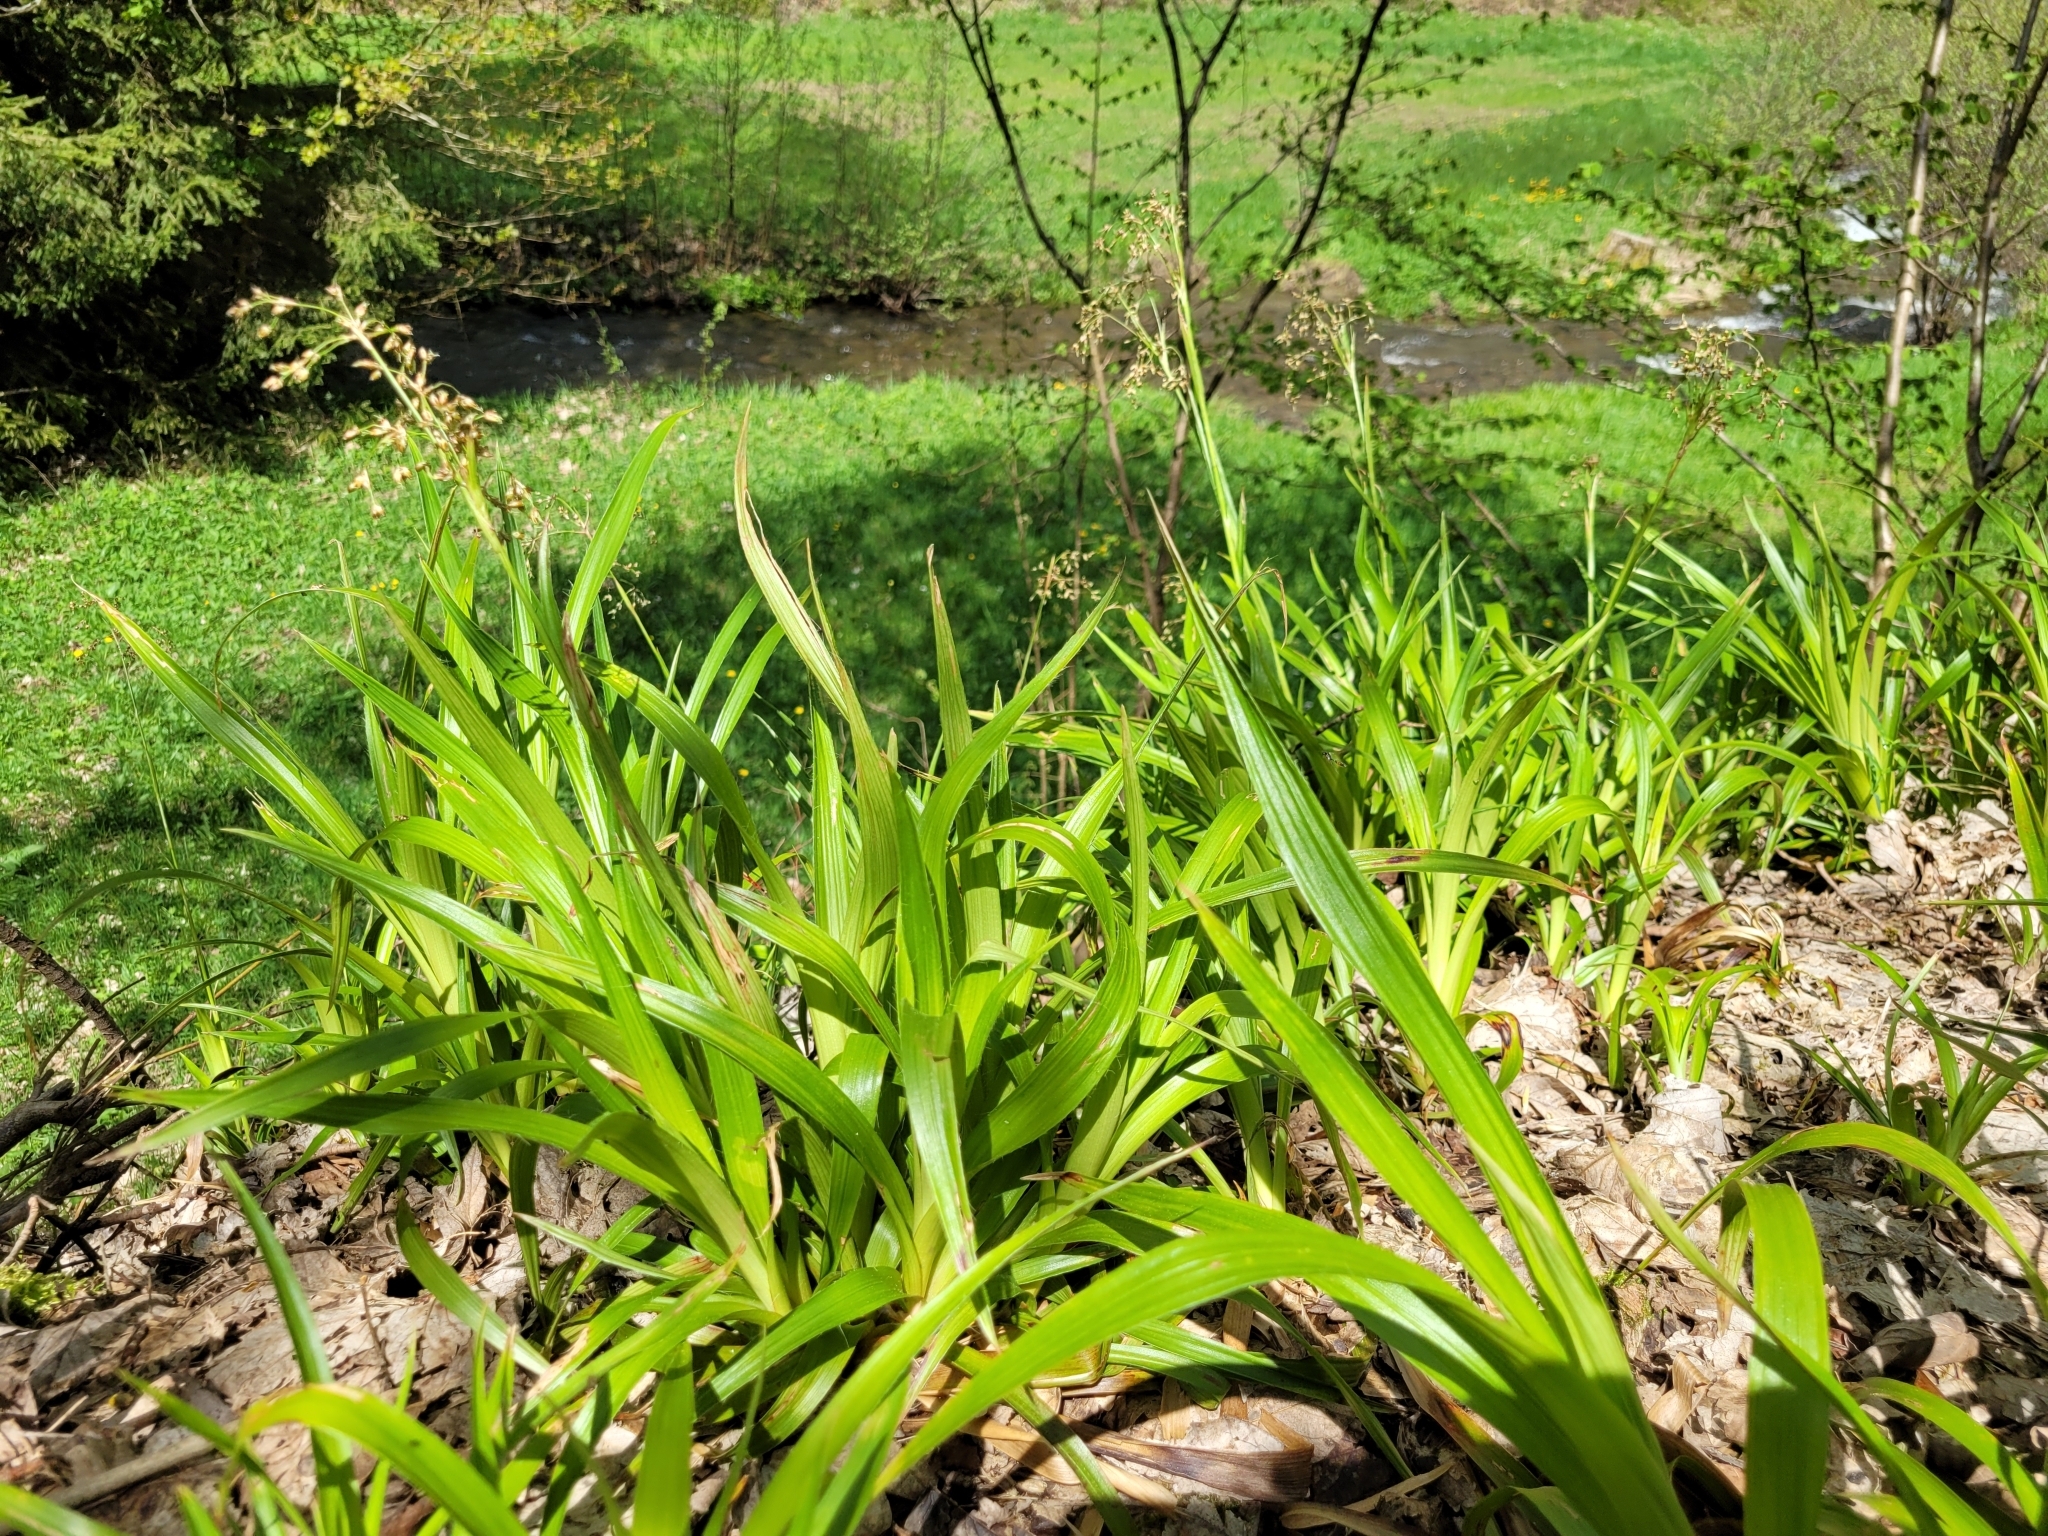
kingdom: Plantae
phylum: Tracheophyta
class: Liliopsida
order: Poales
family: Cyperaceae
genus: Scirpus
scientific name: Scirpus sylvaticus
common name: Wood club-rush
